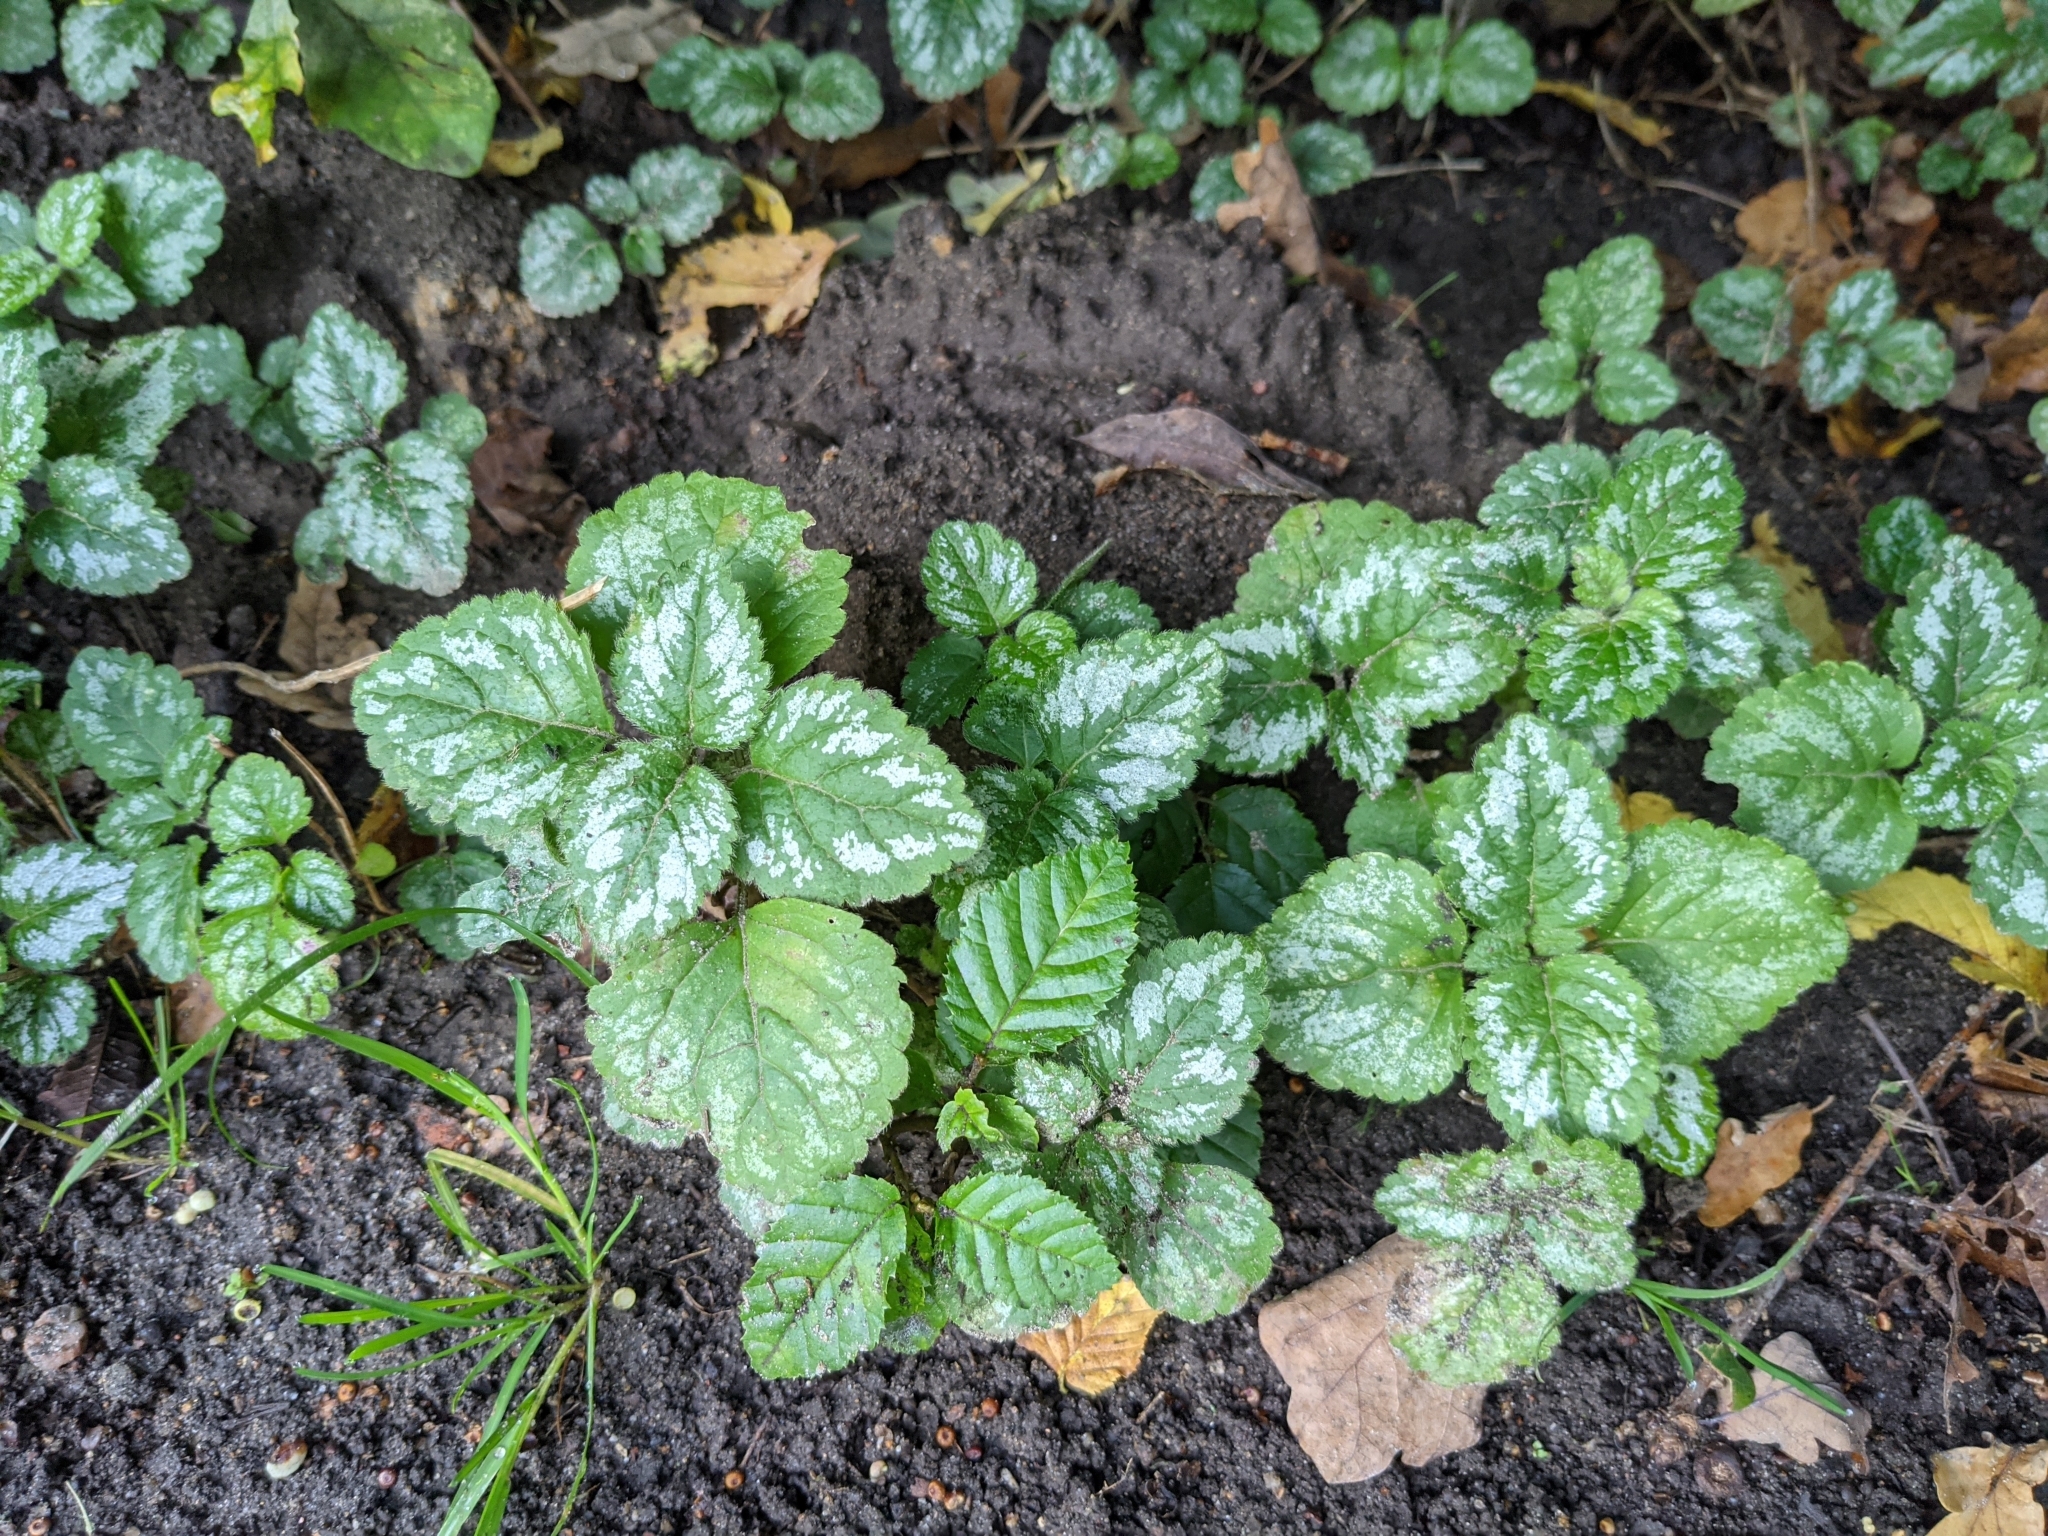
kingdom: Plantae
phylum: Tracheophyta
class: Magnoliopsida
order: Lamiales
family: Lamiaceae
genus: Lamium
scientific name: Lamium galeobdolon
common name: Yellow archangel
